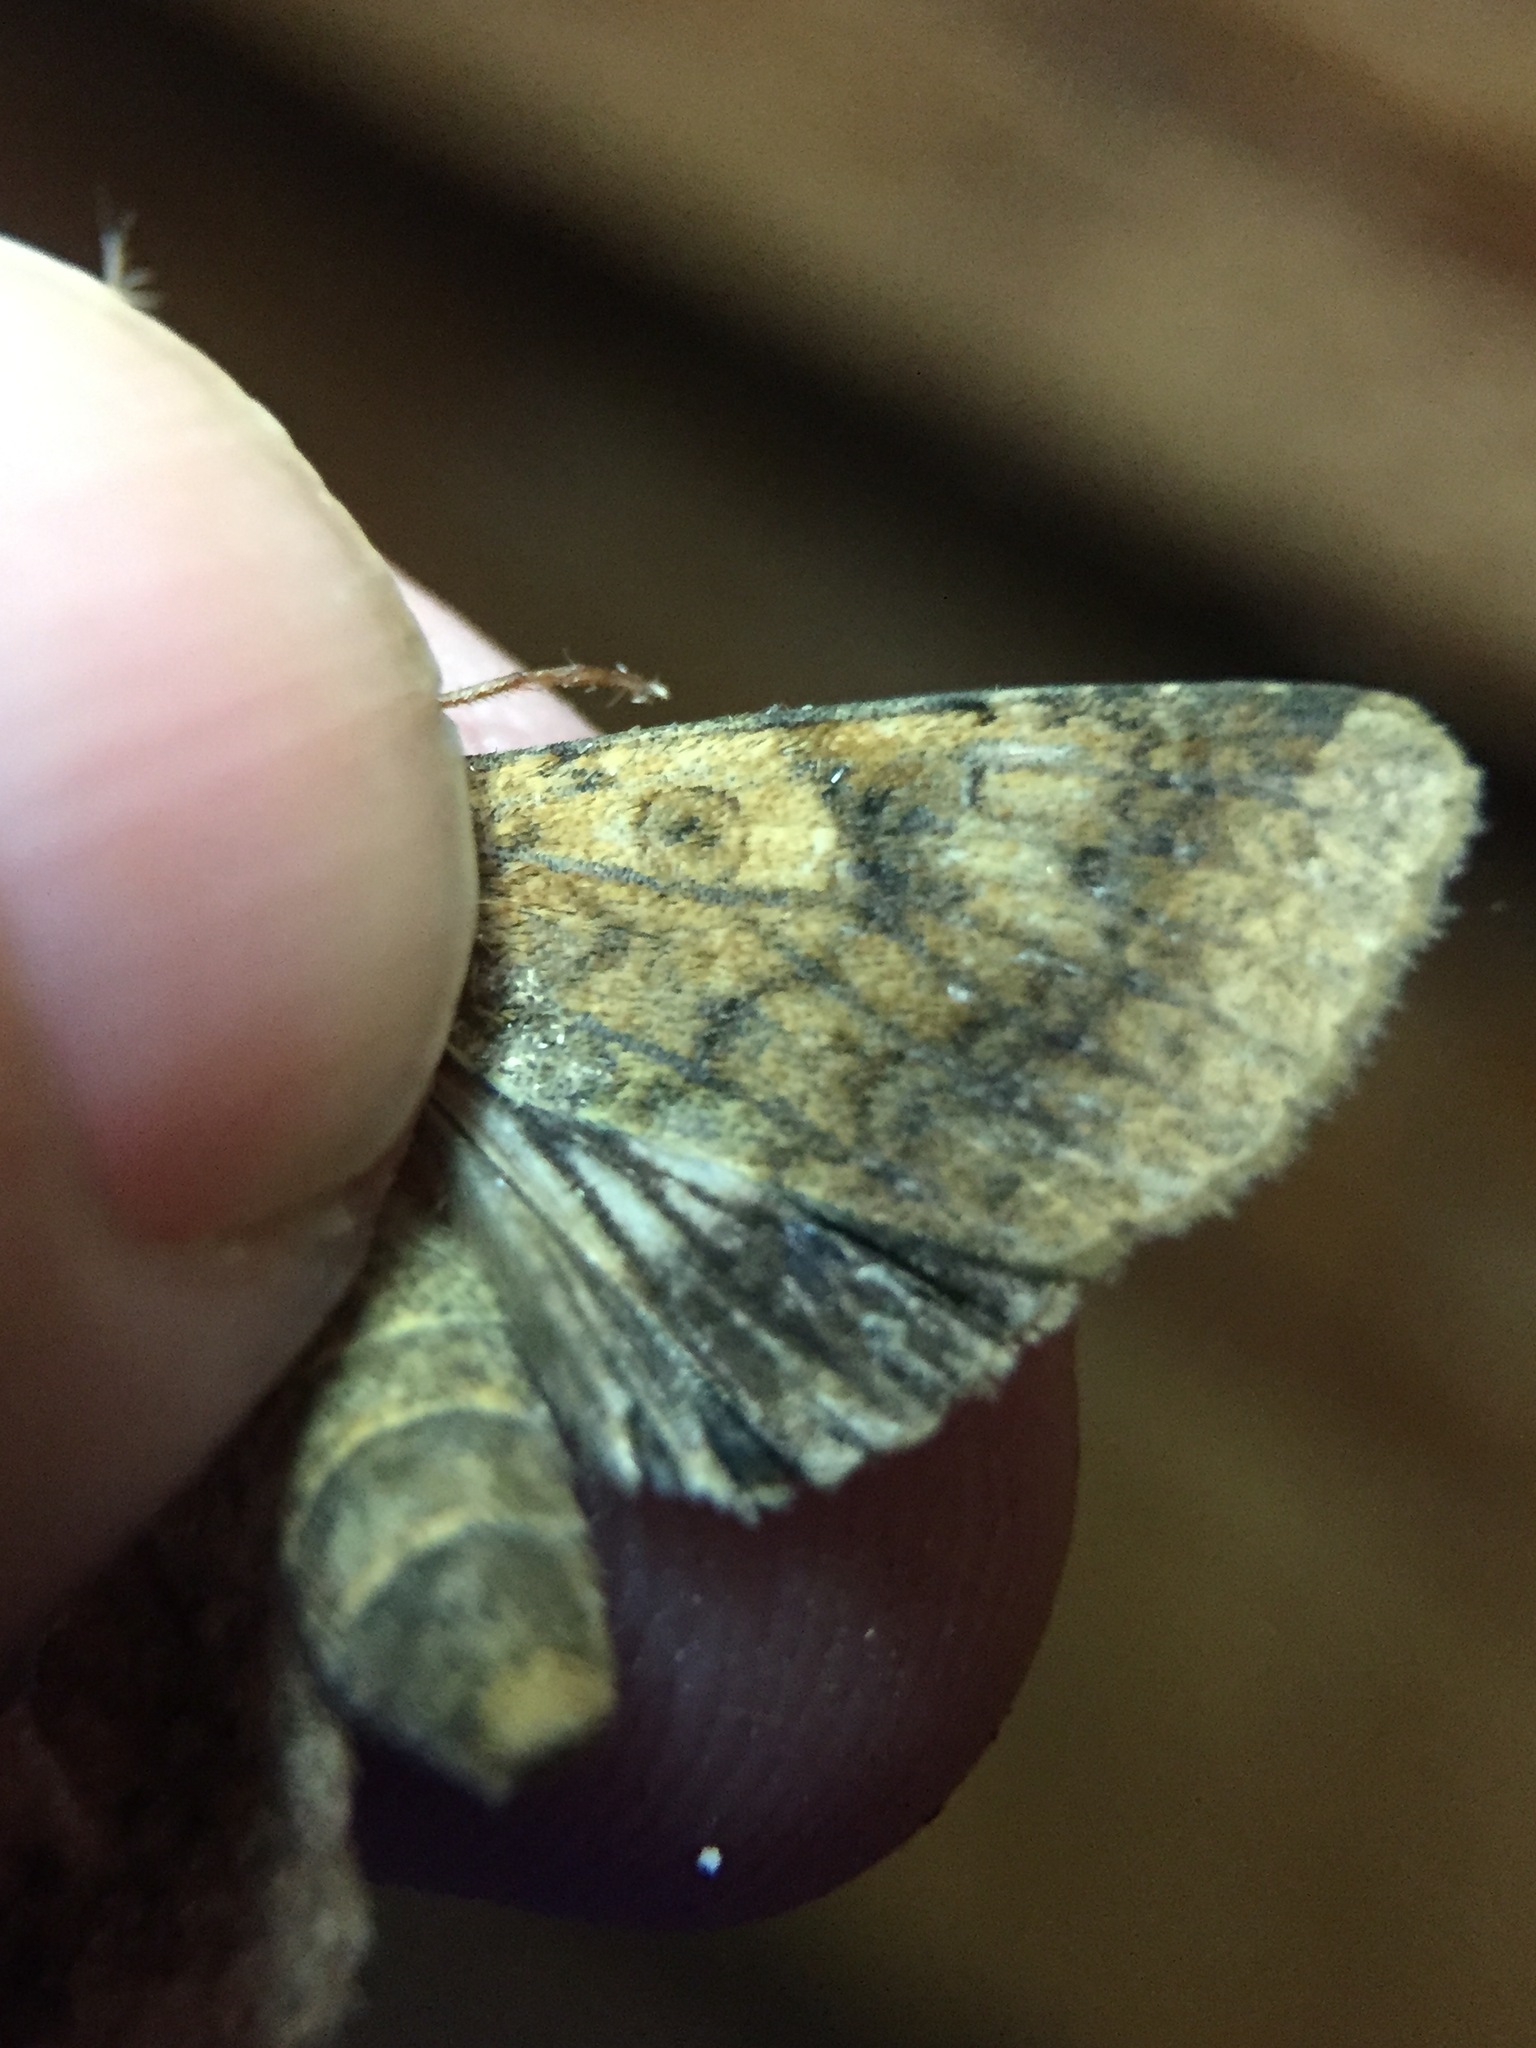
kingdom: Animalia
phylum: Arthropoda
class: Insecta
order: Lepidoptera
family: Noctuidae
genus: Helicoverpa
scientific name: Helicoverpa armigera
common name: Cotton bollworm
